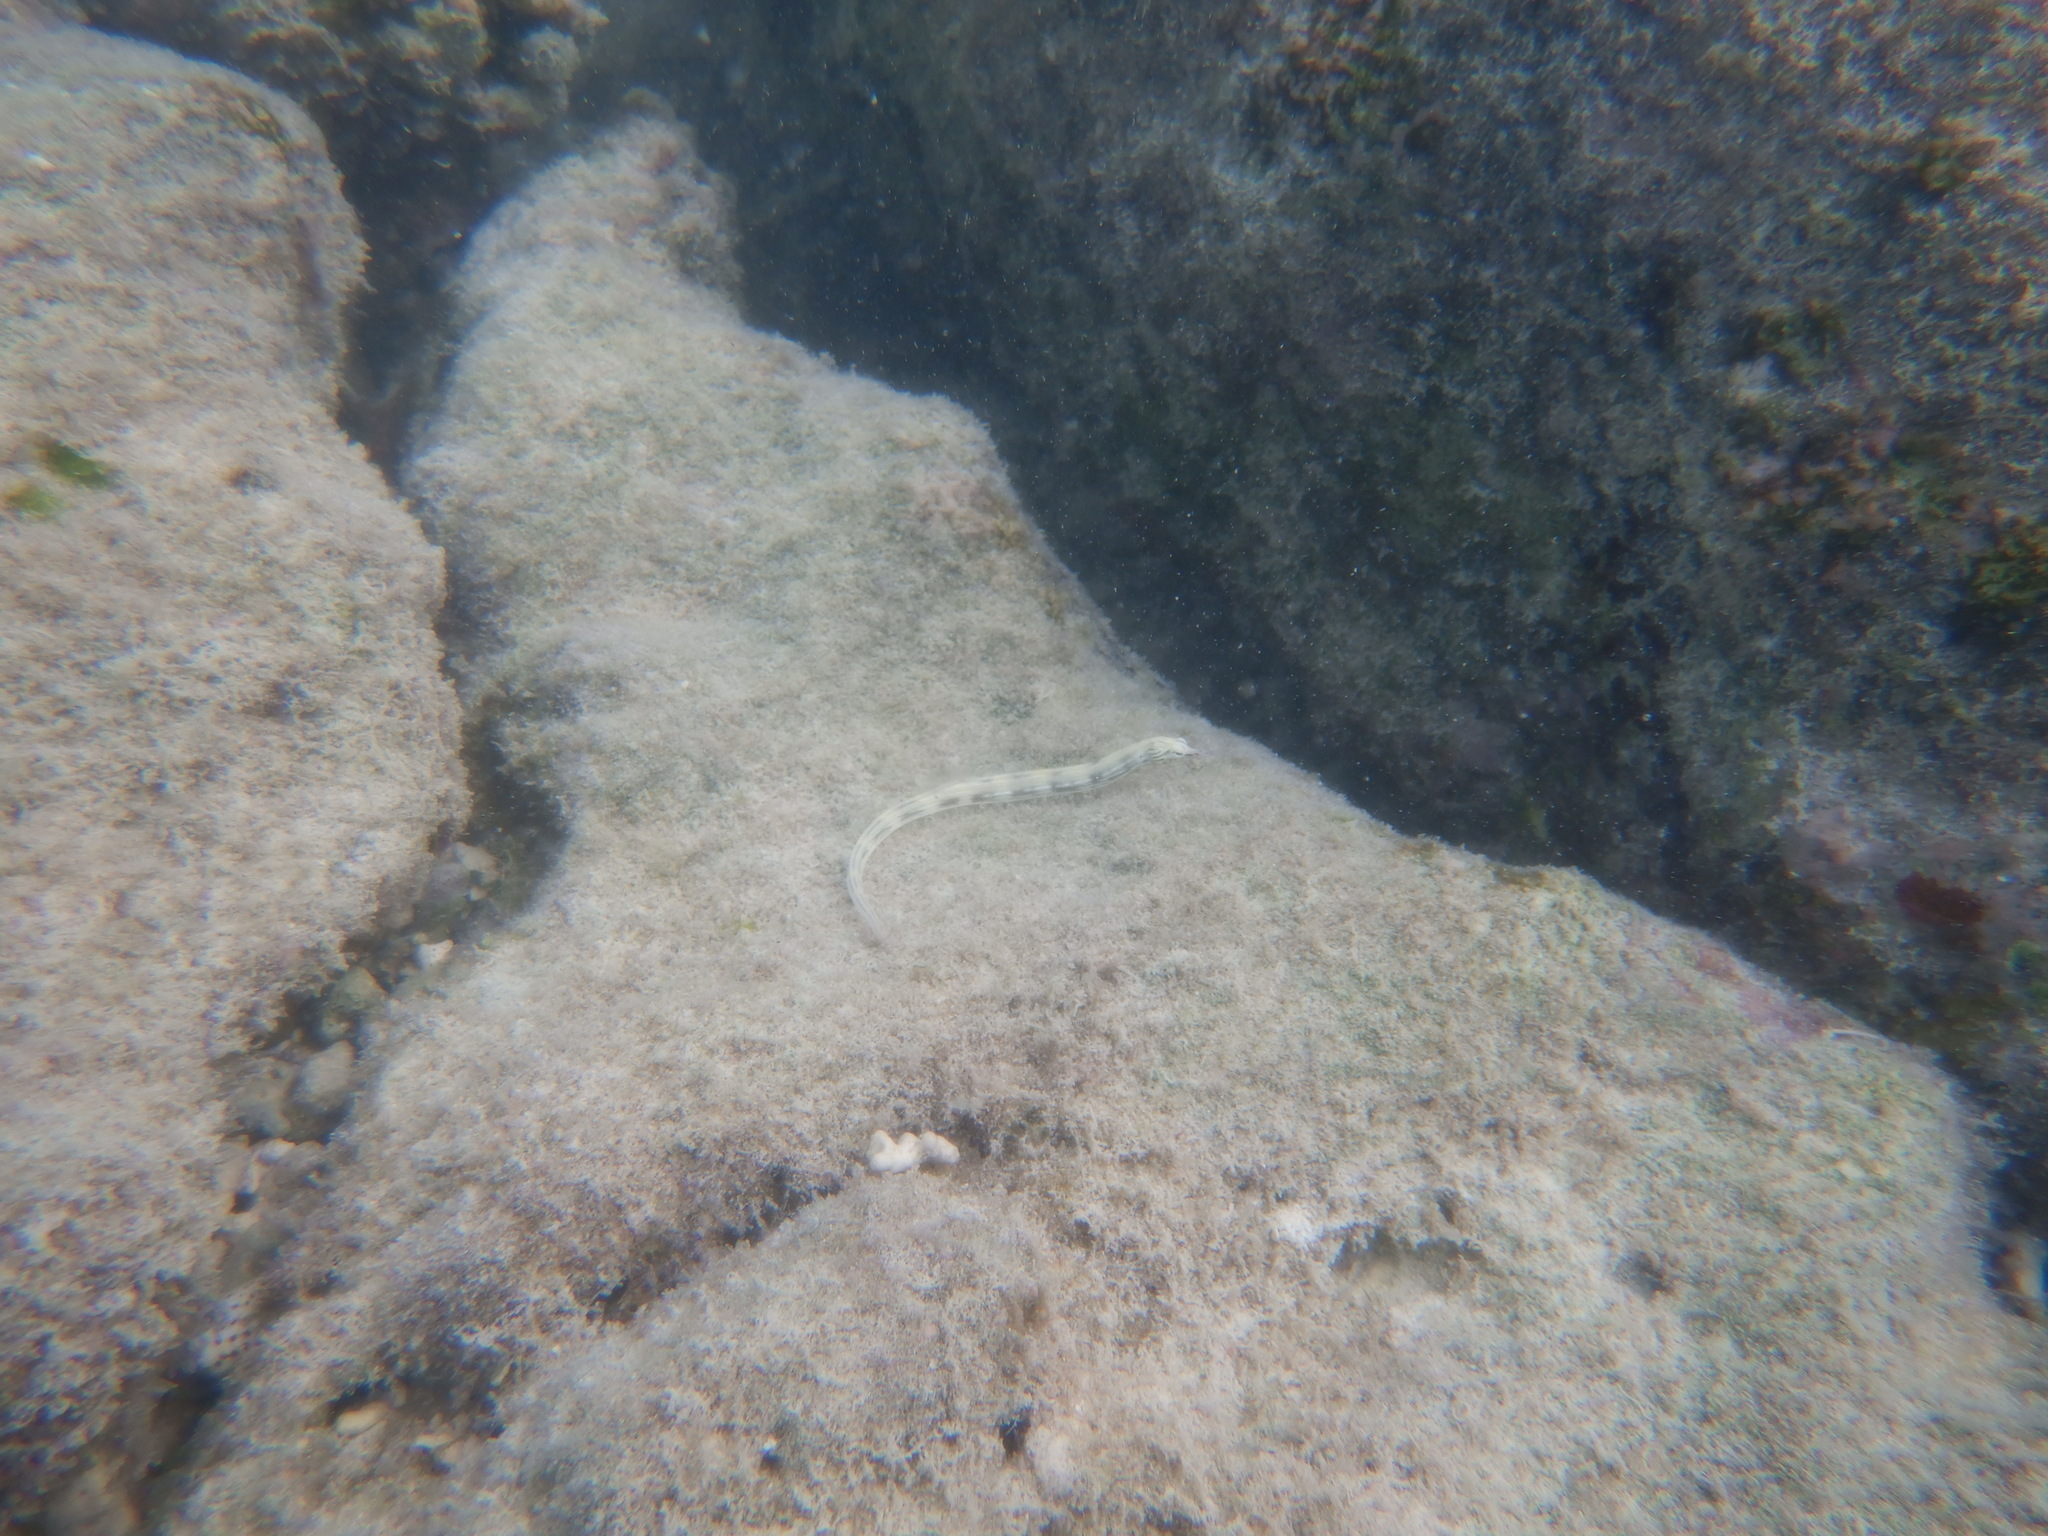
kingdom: Animalia
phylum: Chordata
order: Syngnathiformes
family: Syngnathidae
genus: Corythoichthys
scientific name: Corythoichthys haematopterus
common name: Bloodspot pipefish
